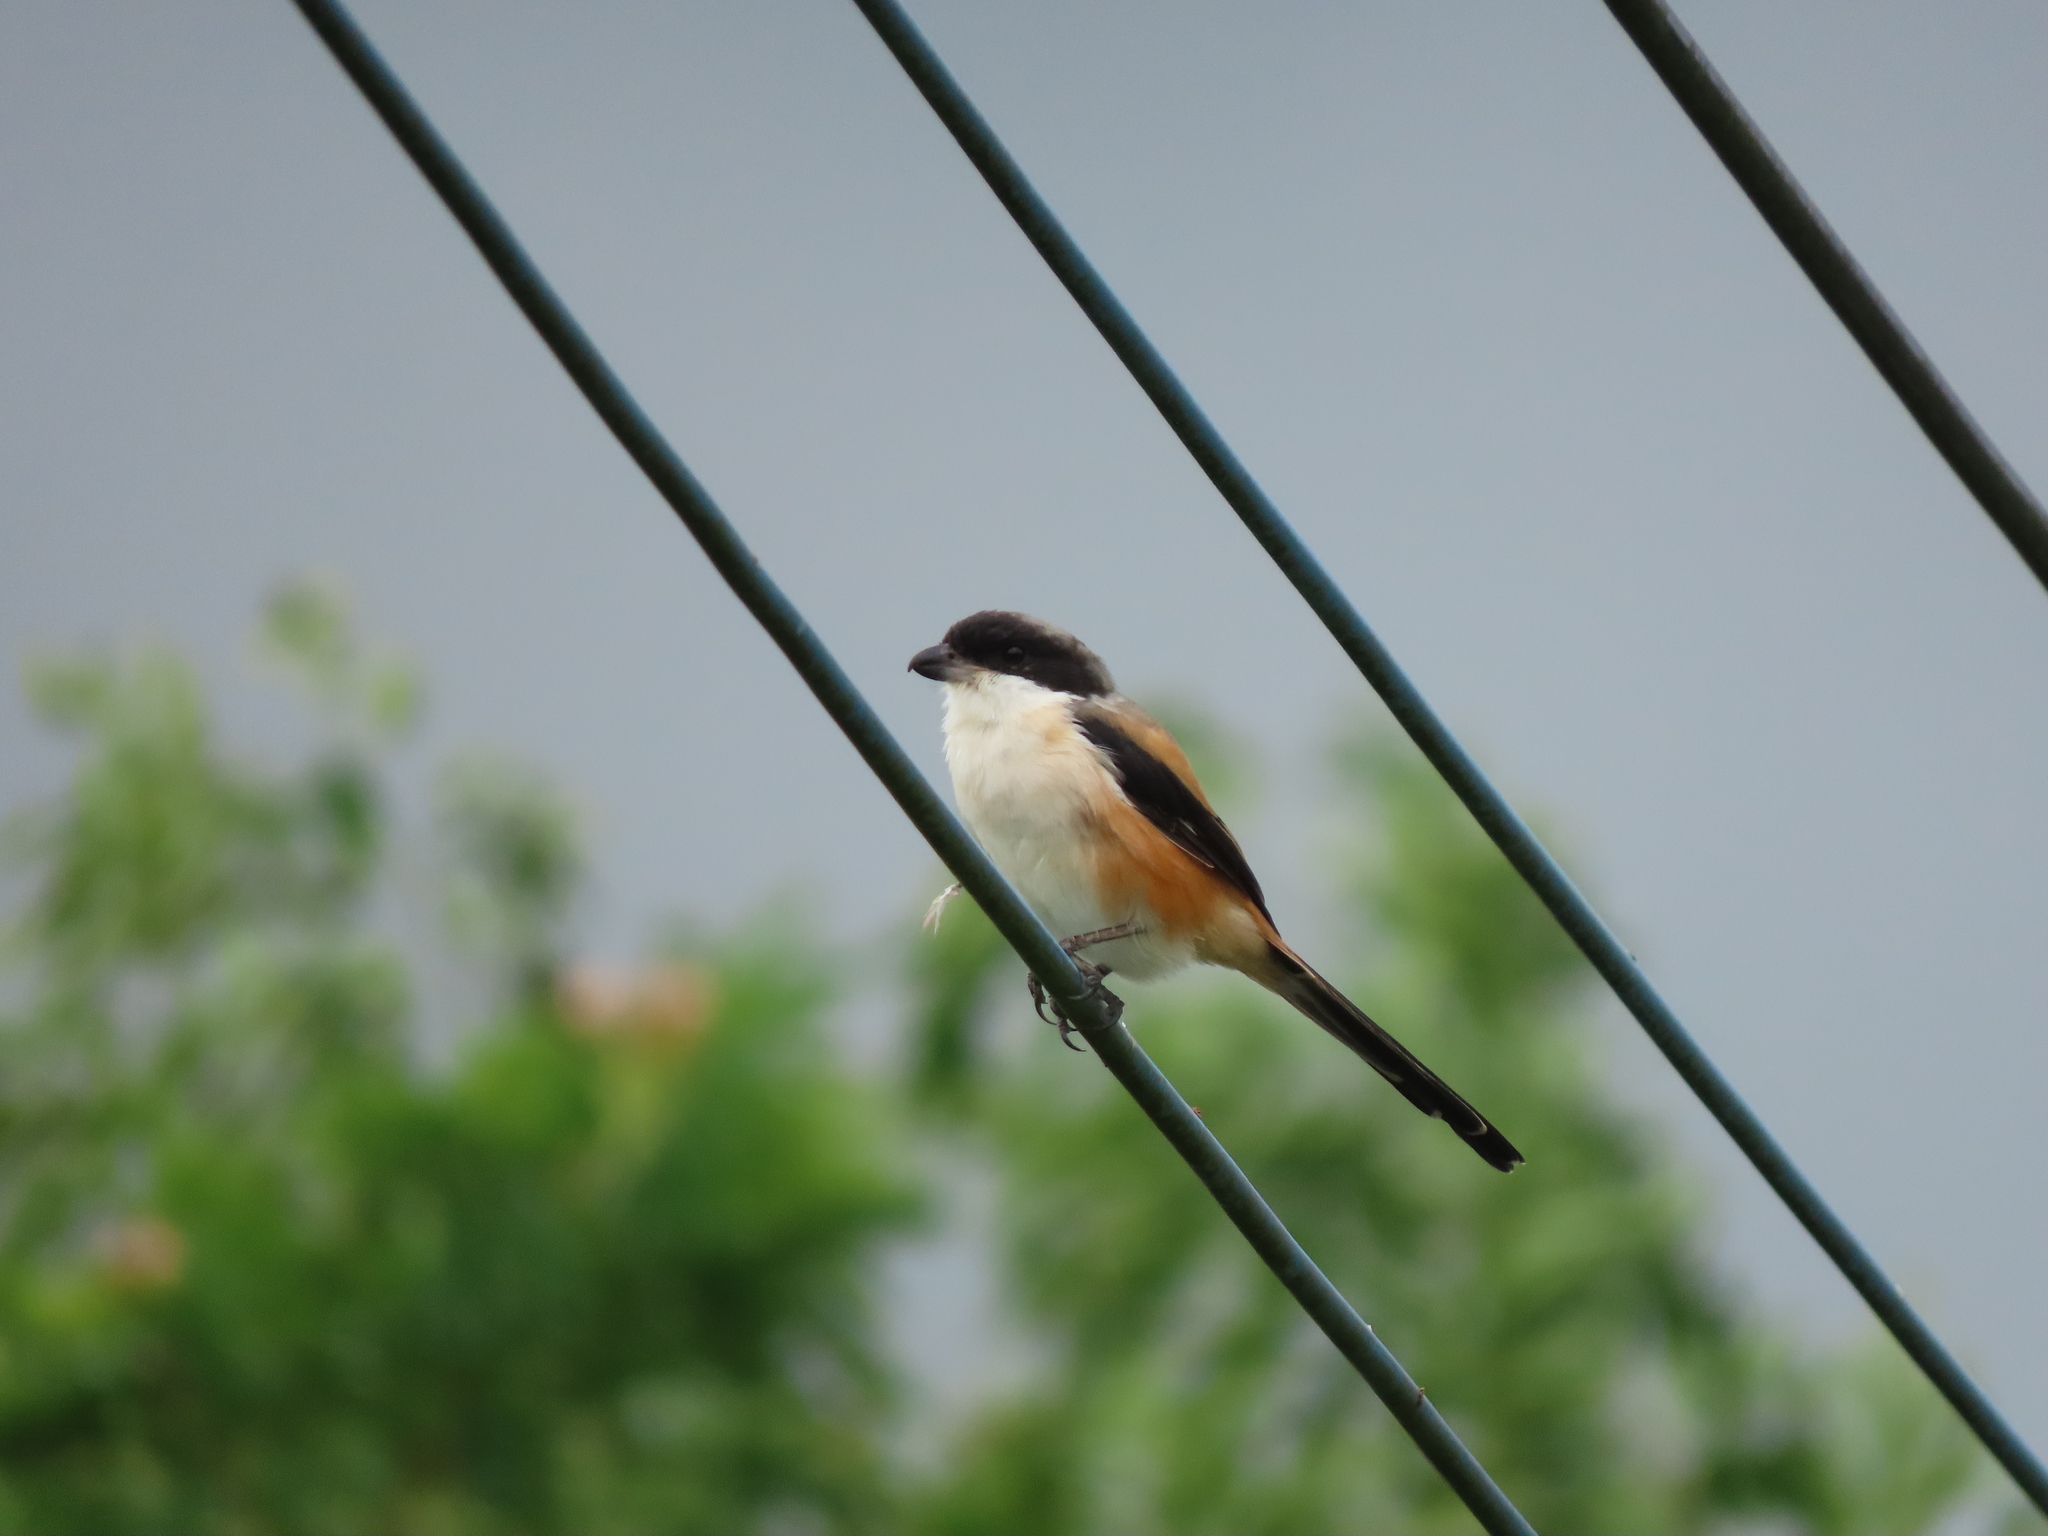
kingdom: Animalia
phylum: Chordata
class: Aves
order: Passeriformes
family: Laniidae
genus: Lanius
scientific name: Lanius schach
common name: Long-tailed shrike
